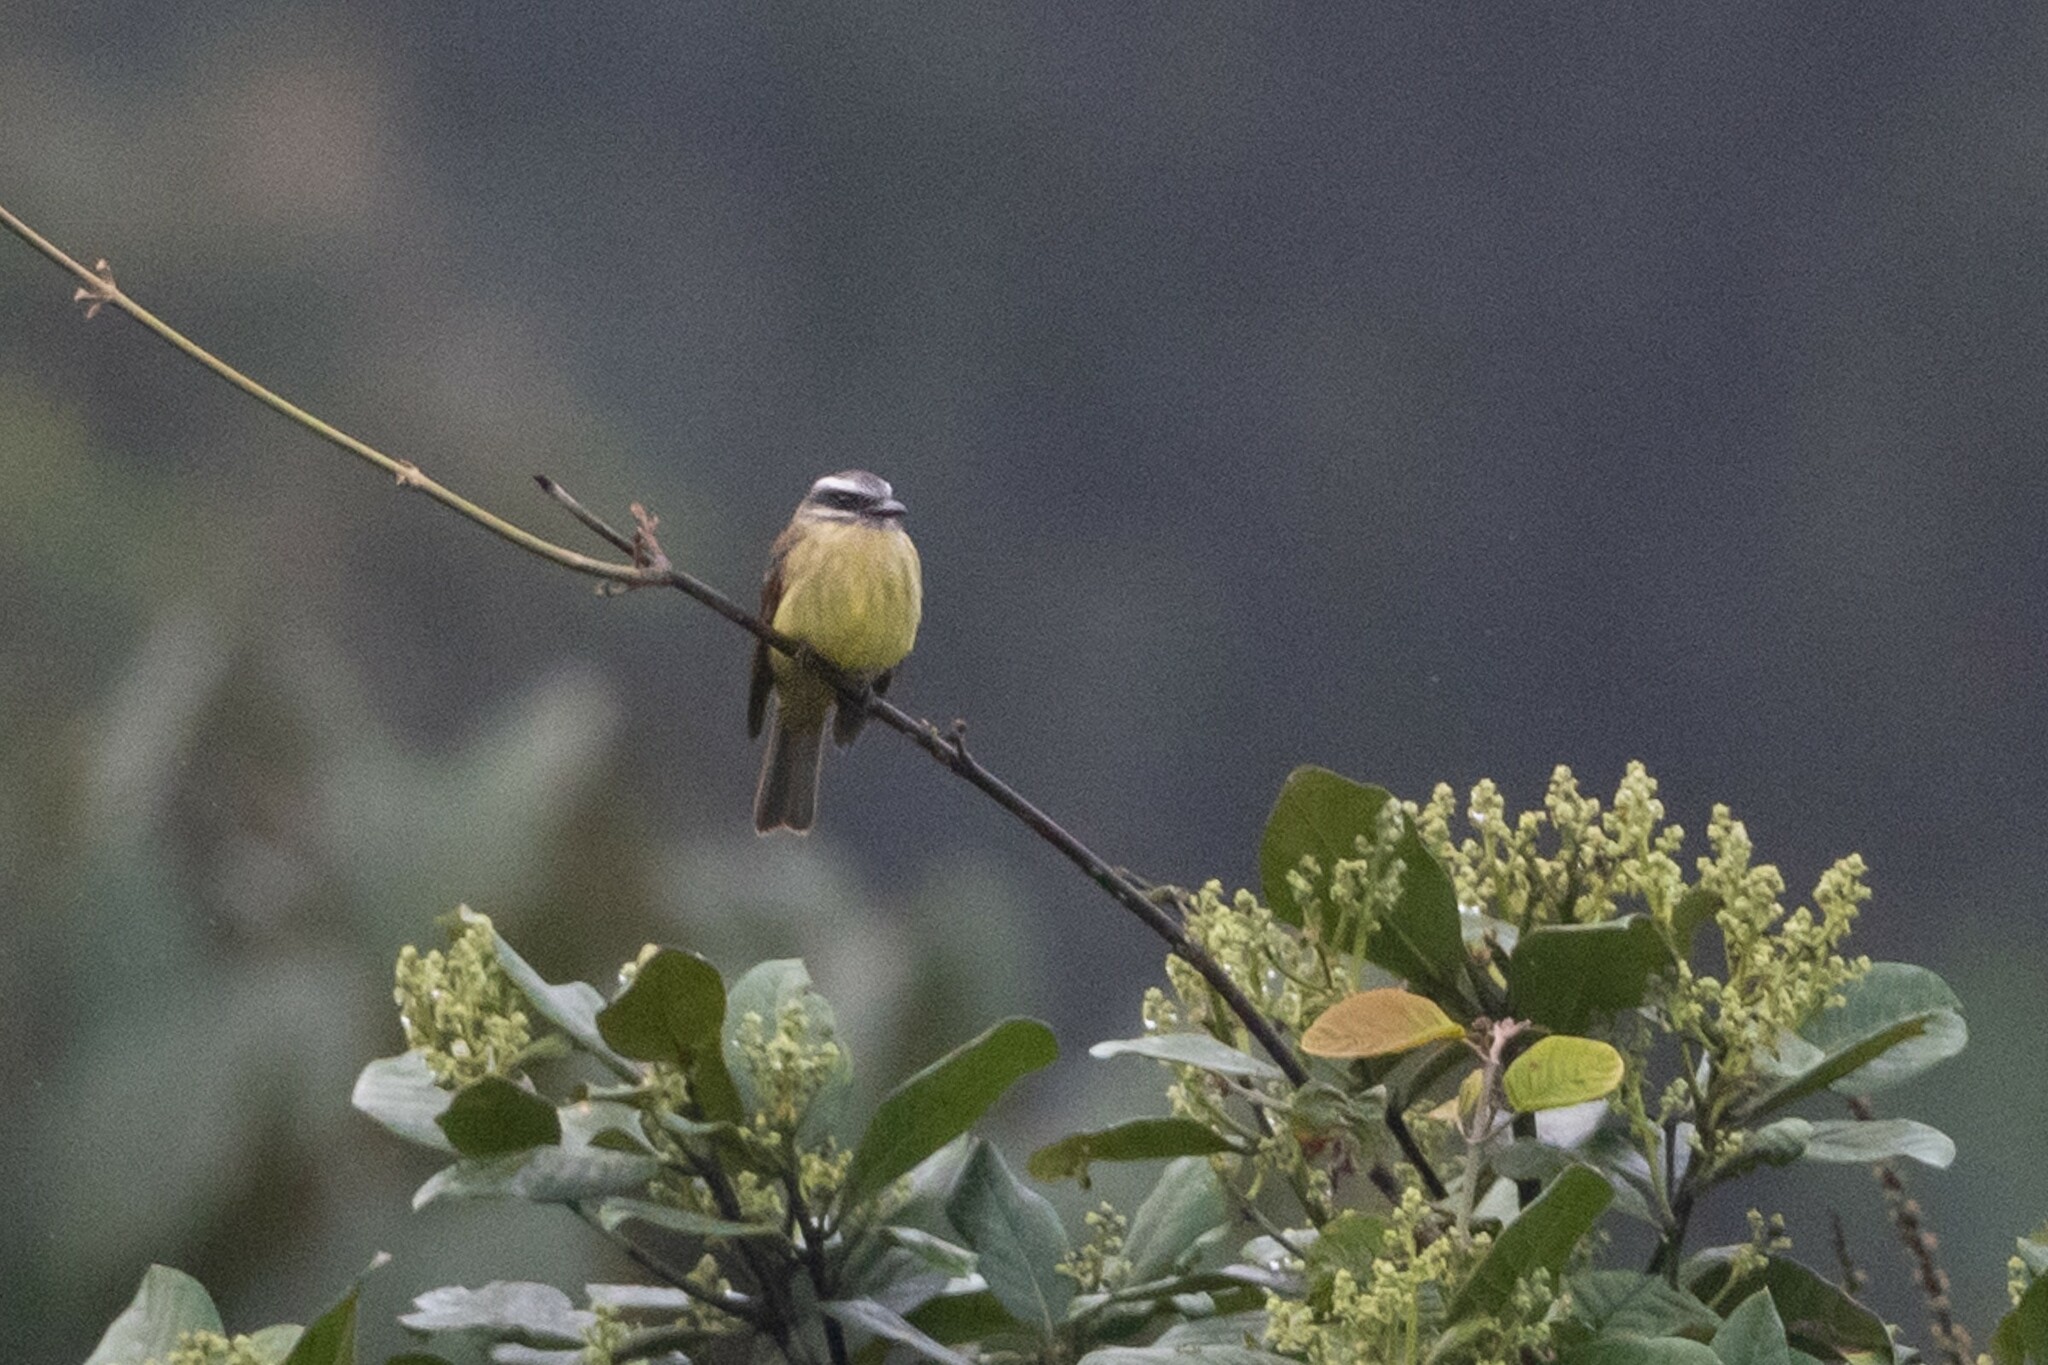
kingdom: Animalia
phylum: Chordata
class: Aves
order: Passeriformes
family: Tyrannidae
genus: Myiodynastes
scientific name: Myiodynastes hemichrysus
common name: Golden-bellied flycatcher
